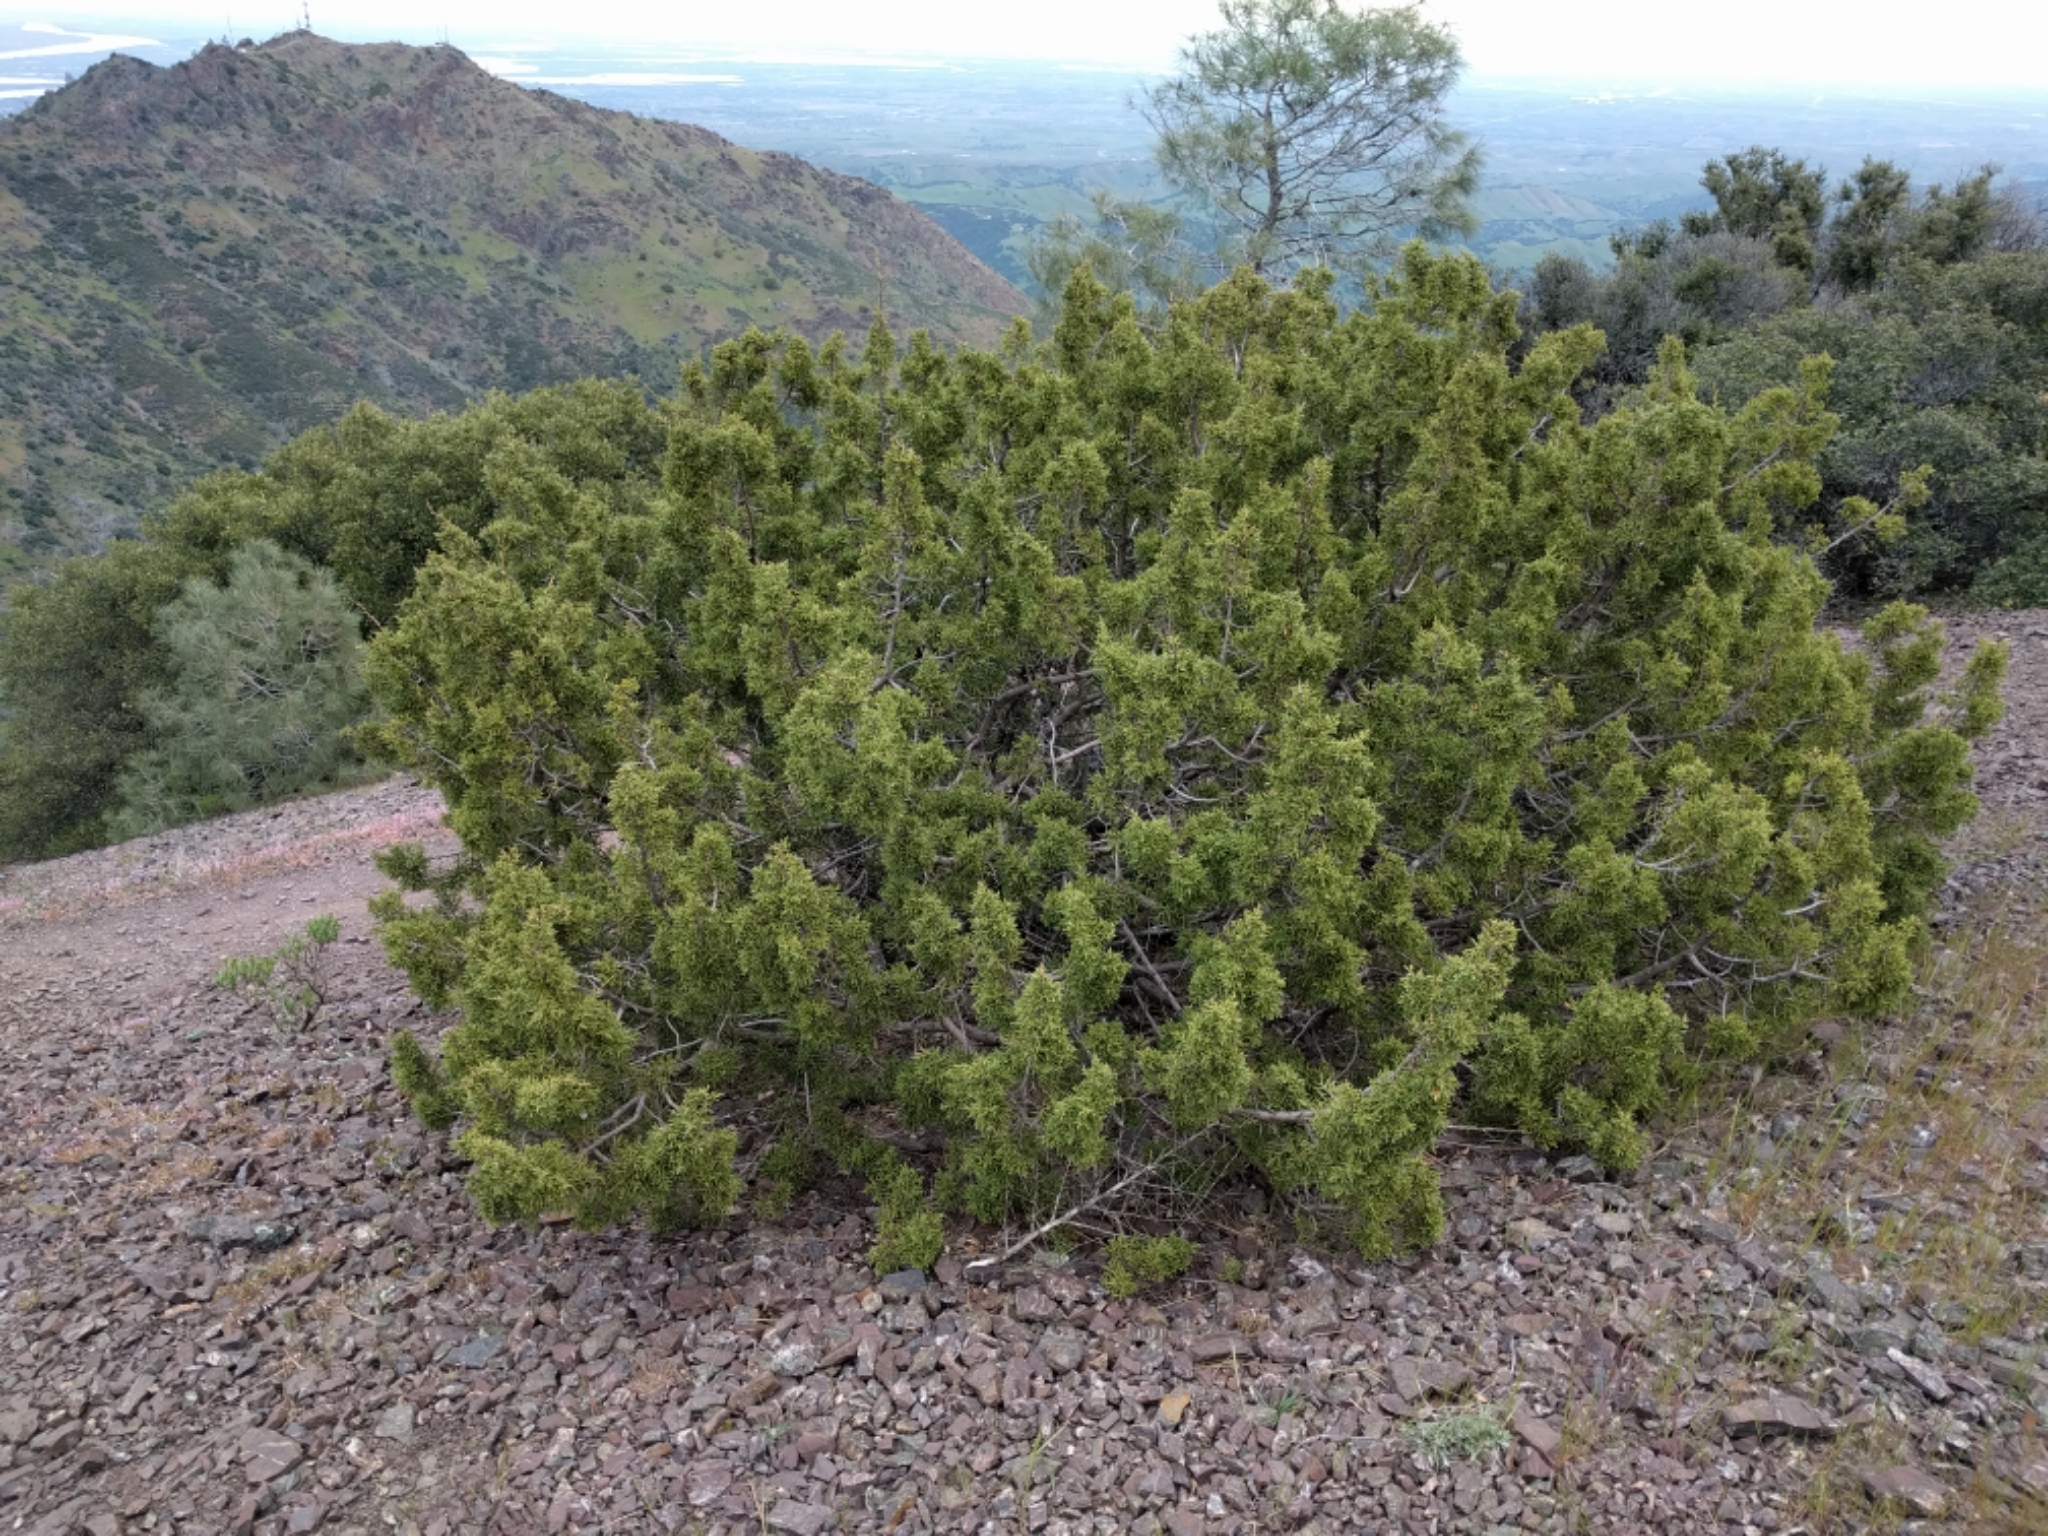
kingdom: Plantae
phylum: Tracheophyta
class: Pinopsida
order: Pinales
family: Cupressaceae
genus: Juniperus
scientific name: Juniperus californica
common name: California juniper
